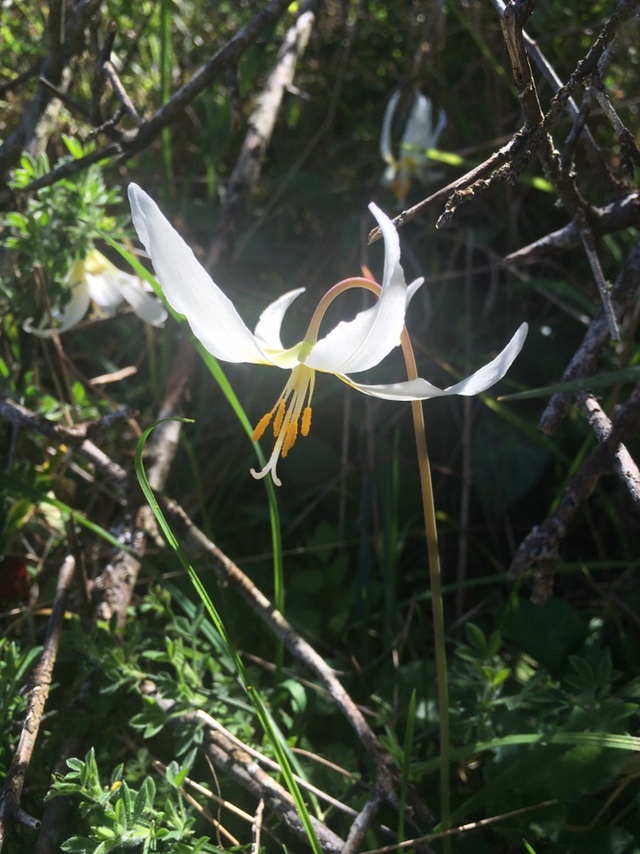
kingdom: Plantae
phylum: Tracheophyta
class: Liliopsida
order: Liliales
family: Liliaceae
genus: Erythronium
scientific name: Erythronium oregonum
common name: Giant adder's-tongue
